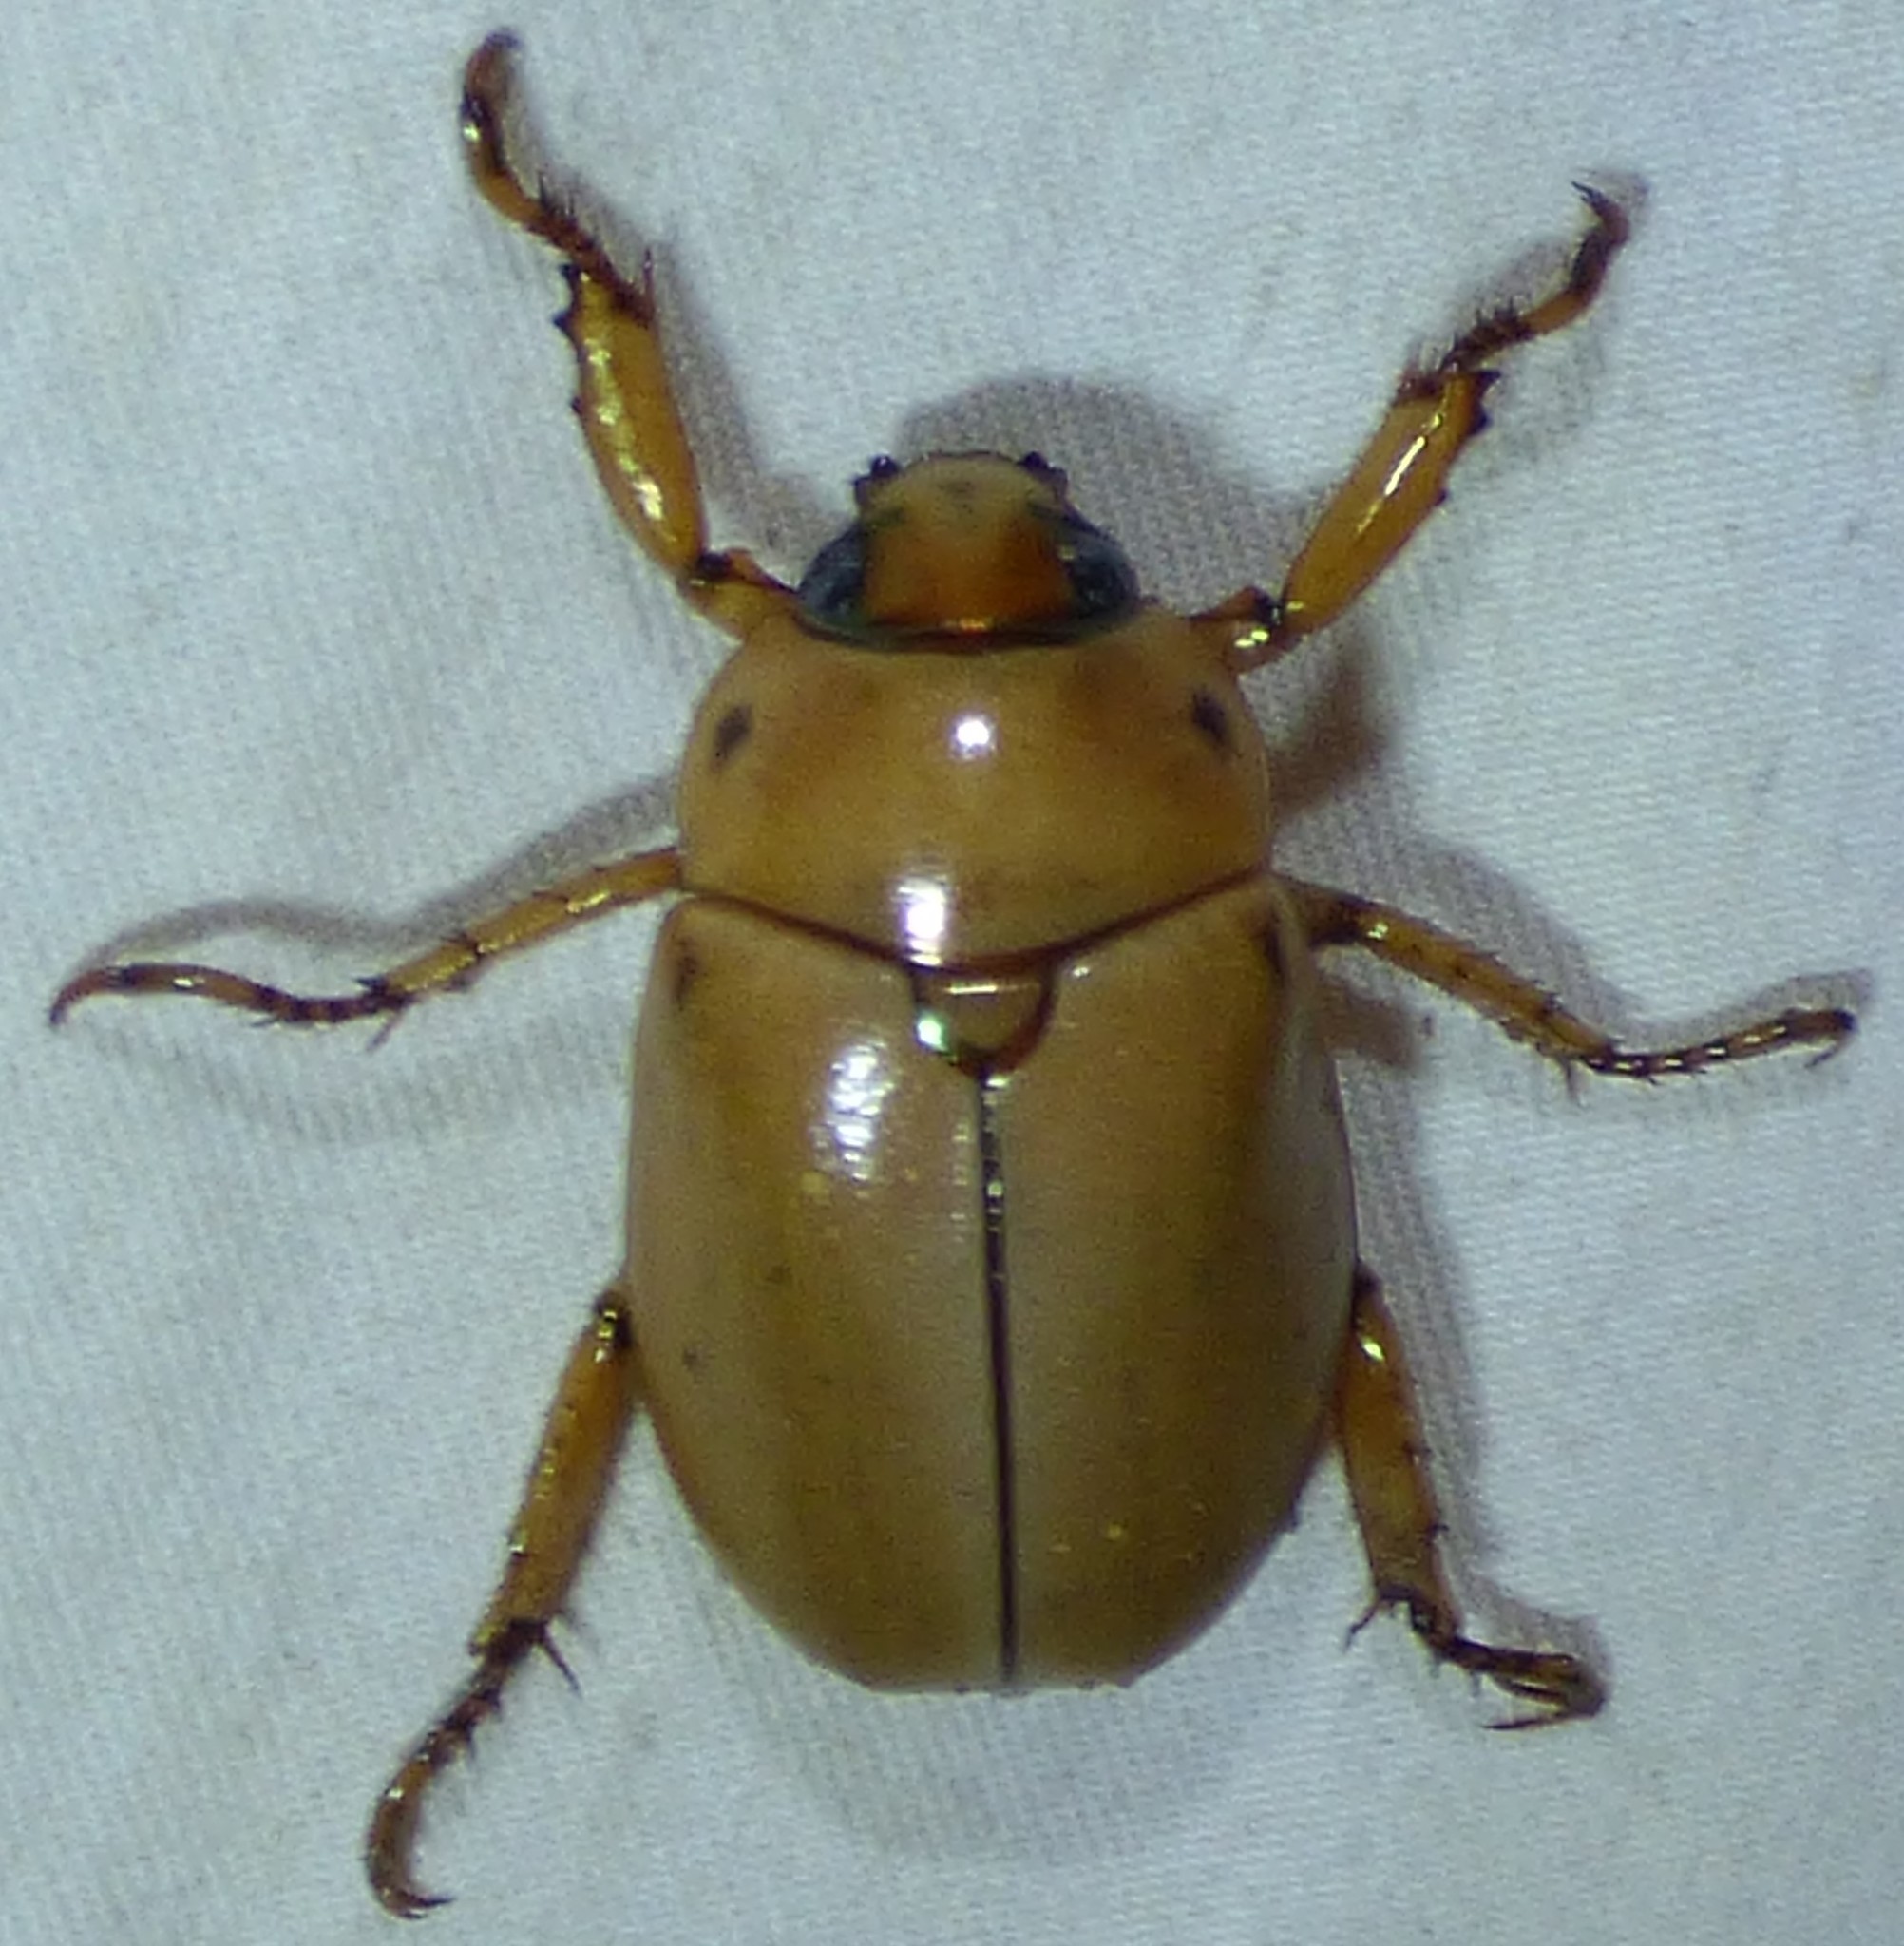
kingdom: Animalia
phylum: Arthropoda
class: Insecta
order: Coleoptera
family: Scarabaeidae
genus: Pelidnota
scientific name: Pelidnota punctata
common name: Grapevine beetle
